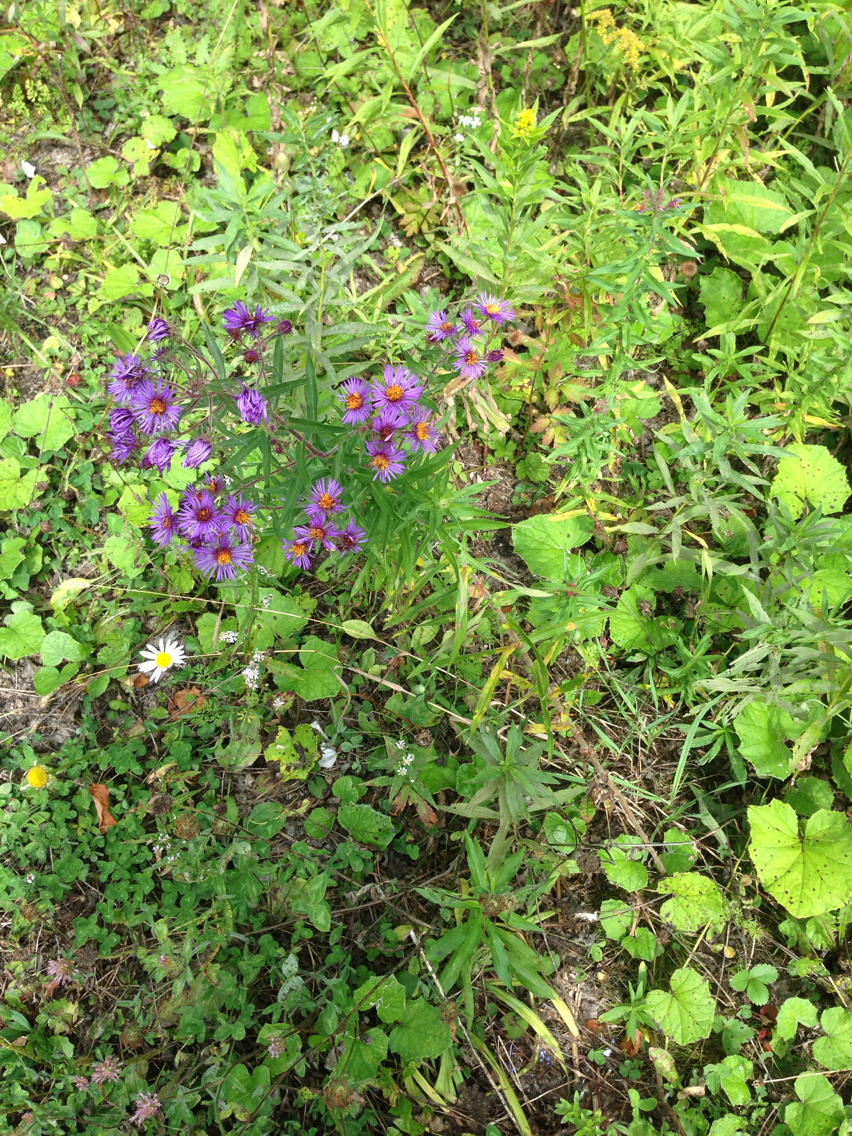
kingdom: Plantae
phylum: Tracheophyta
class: Magnoliopsida
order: Asterales
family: Asteraceae
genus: Symphyotrichum
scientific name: Symphyotrichum novae-angliae
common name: Michaelmas daisy
